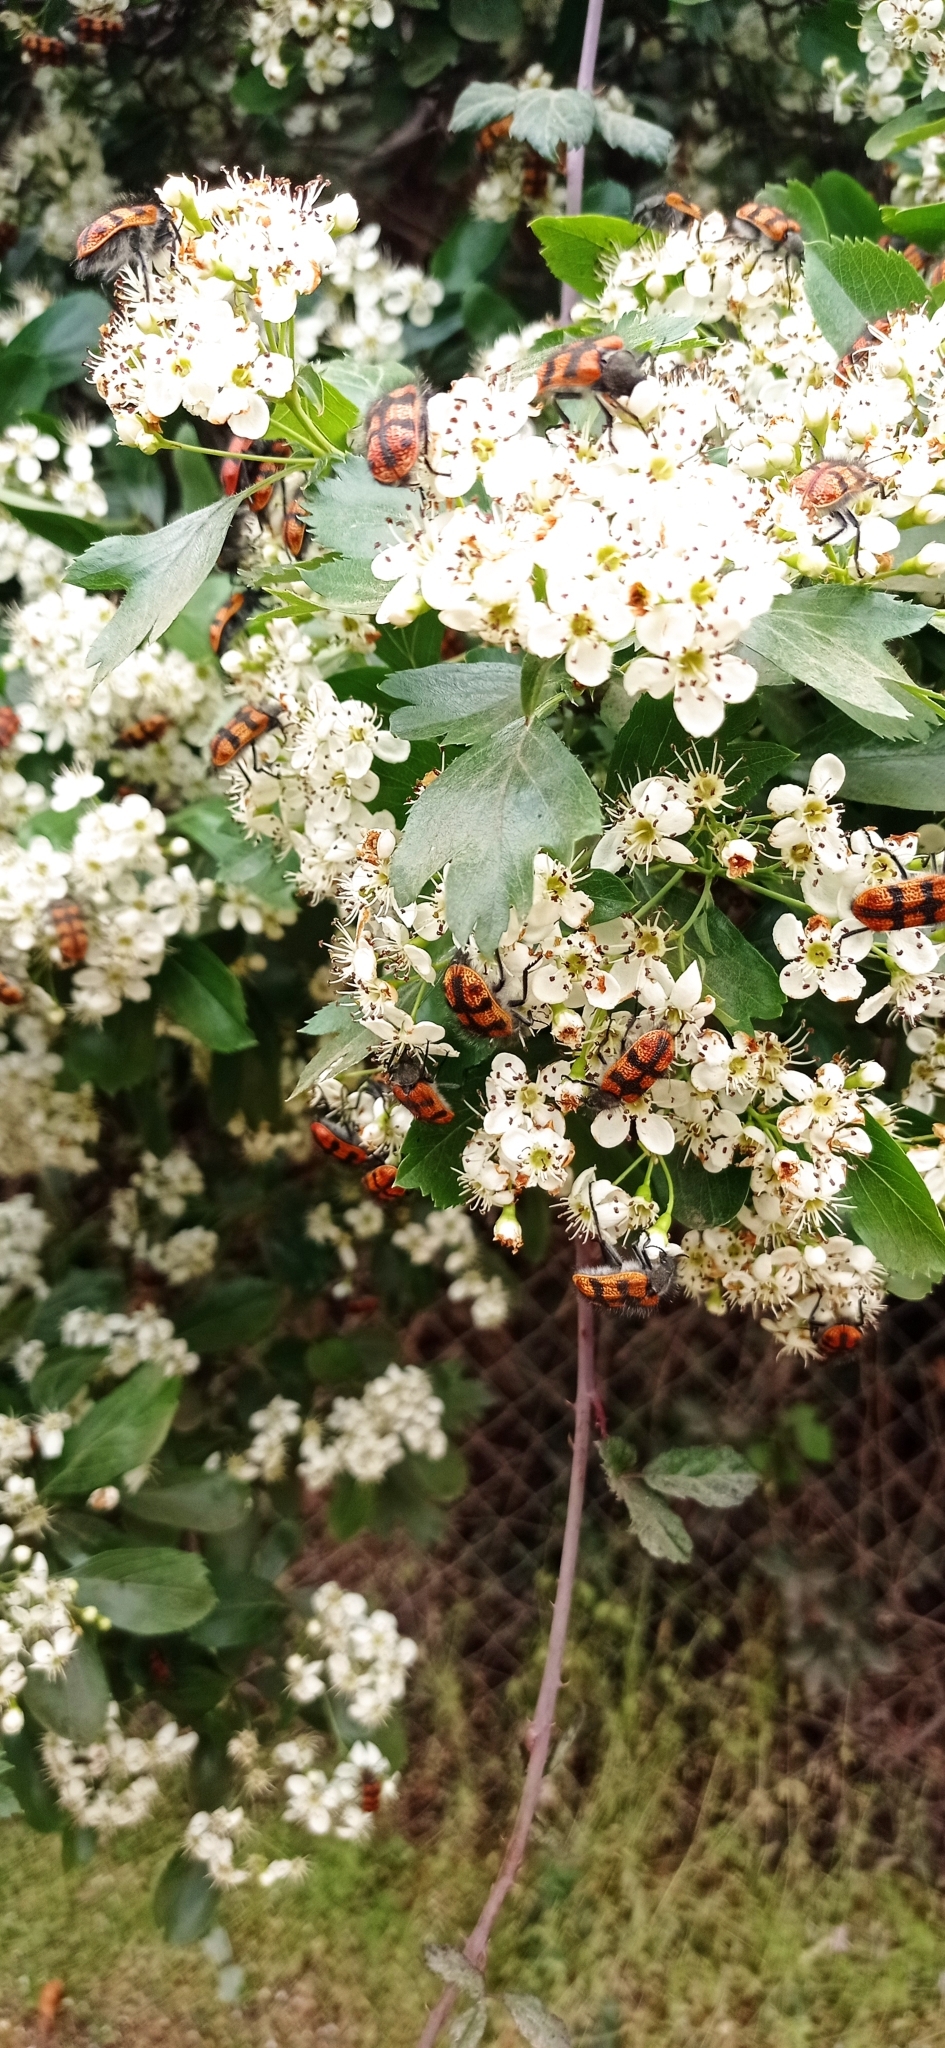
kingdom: Plantae
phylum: Tracheophyta
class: Magnoliopsida
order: Rosales
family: Rosaceae
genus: Crataegus
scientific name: Crataegus monogyna
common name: Hawthorn
